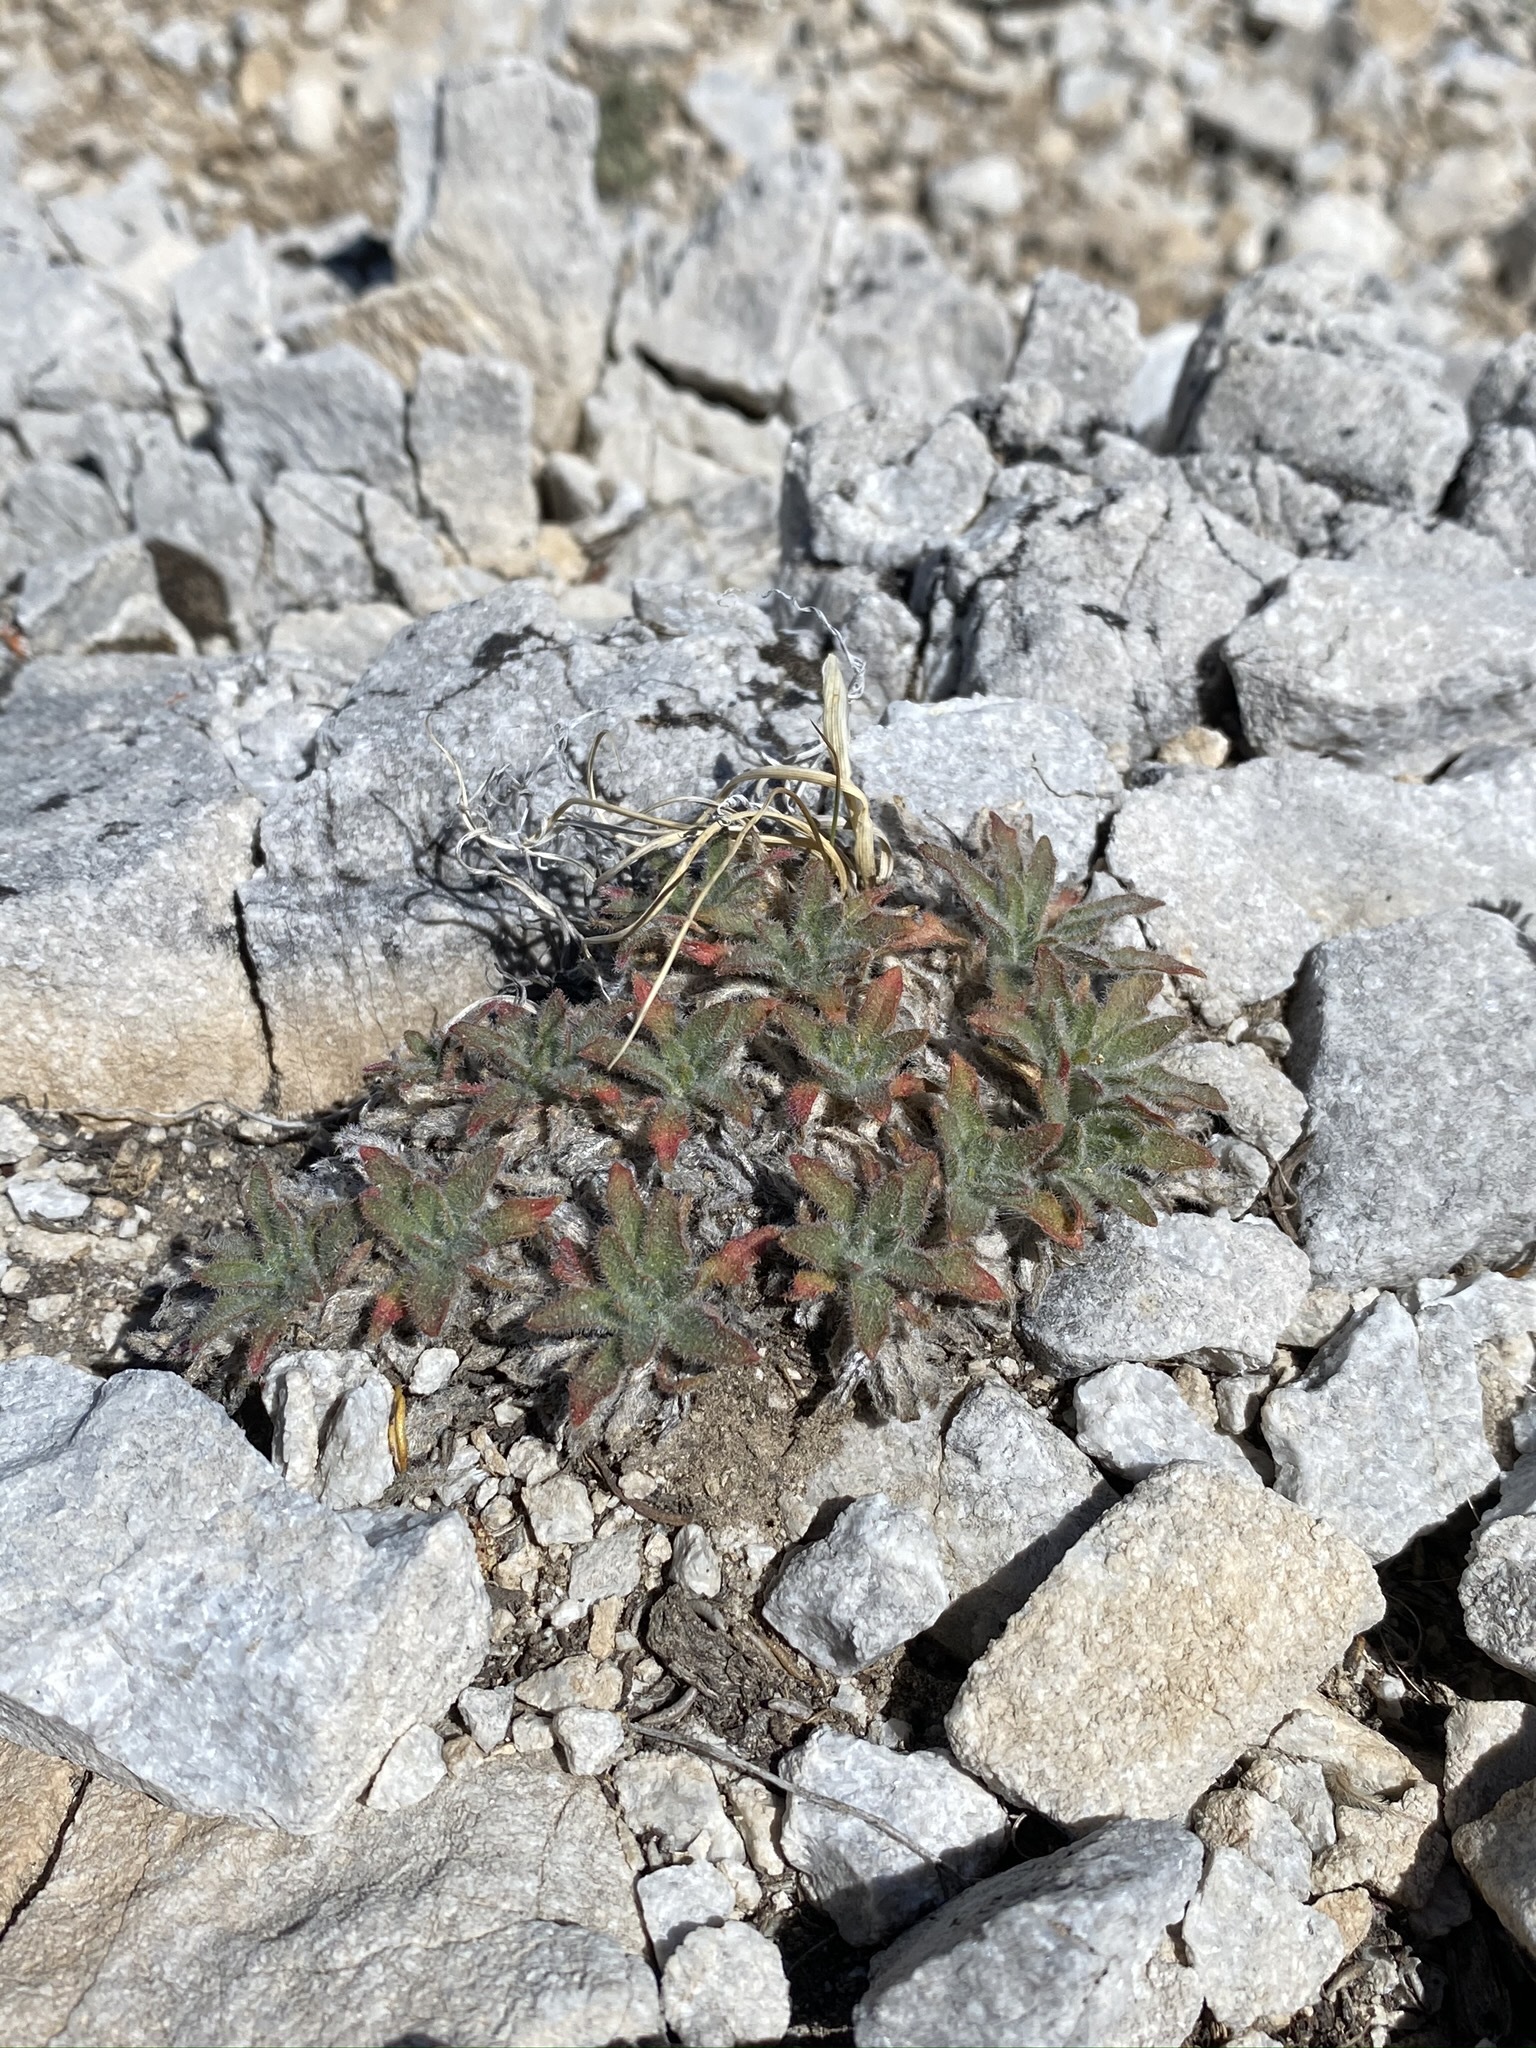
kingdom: Plantae
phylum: Tracheophyta
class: Magnoliopsida
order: Myrtales
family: Onagraceae
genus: Oenothera
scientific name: Oenothera cespitosa
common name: Tufted evening-primrose
